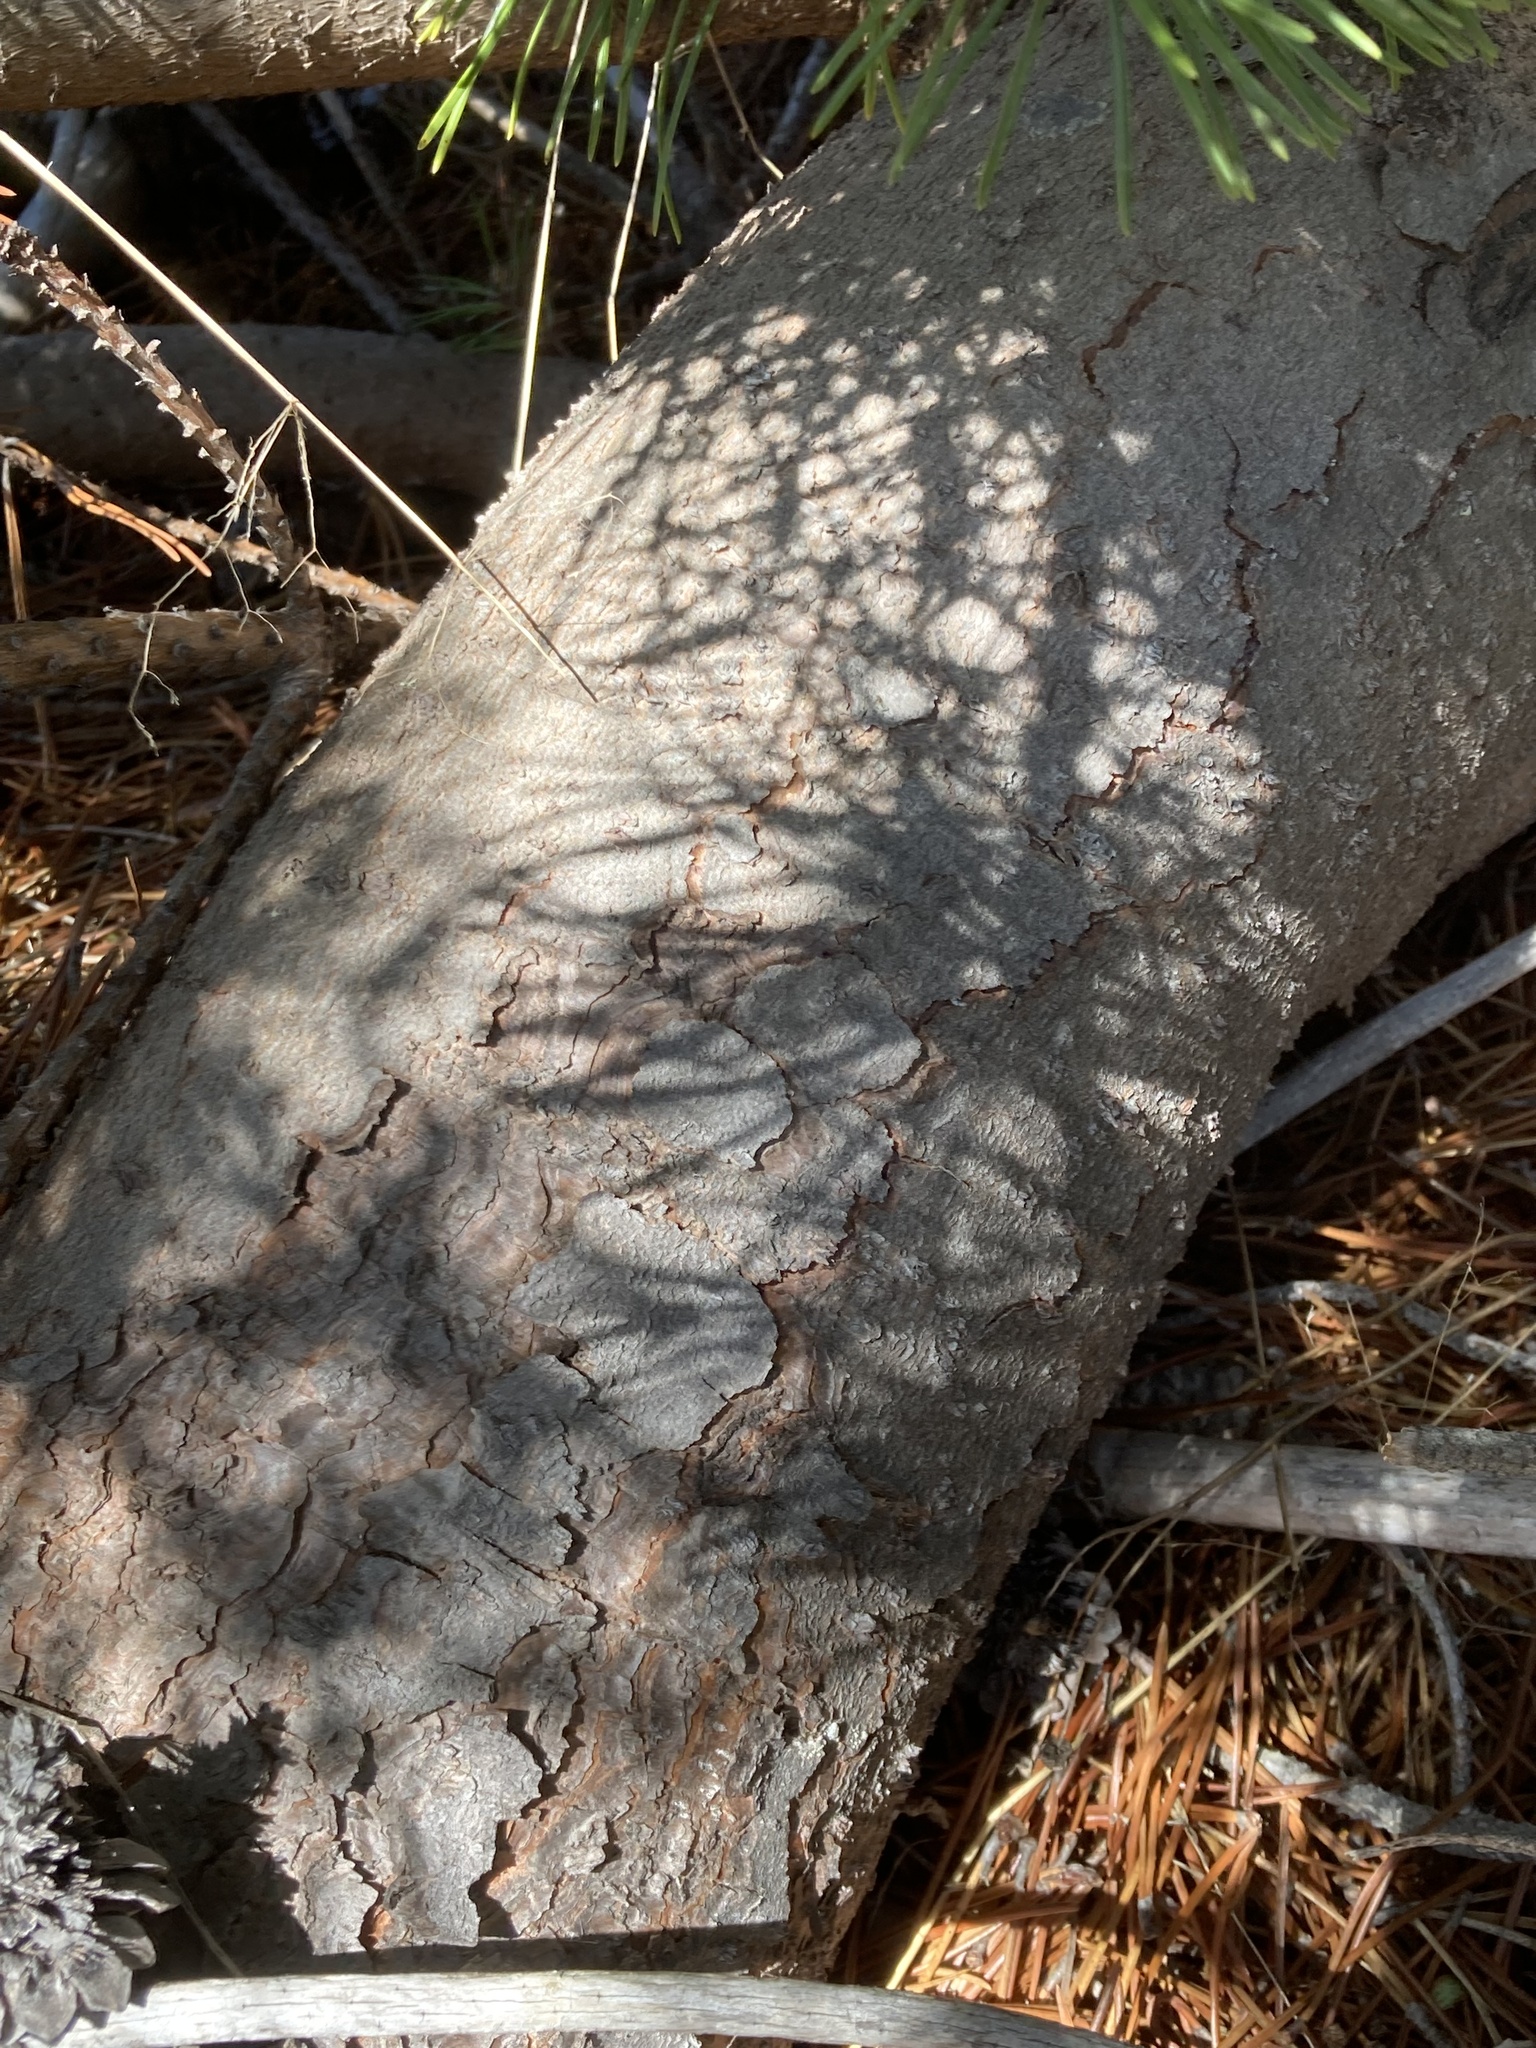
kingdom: Plantae
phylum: Tracheophyta
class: Pinopsida
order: Pinales
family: Pinaceae
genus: Pinus
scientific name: Pinus mugo
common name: Mugo pine
